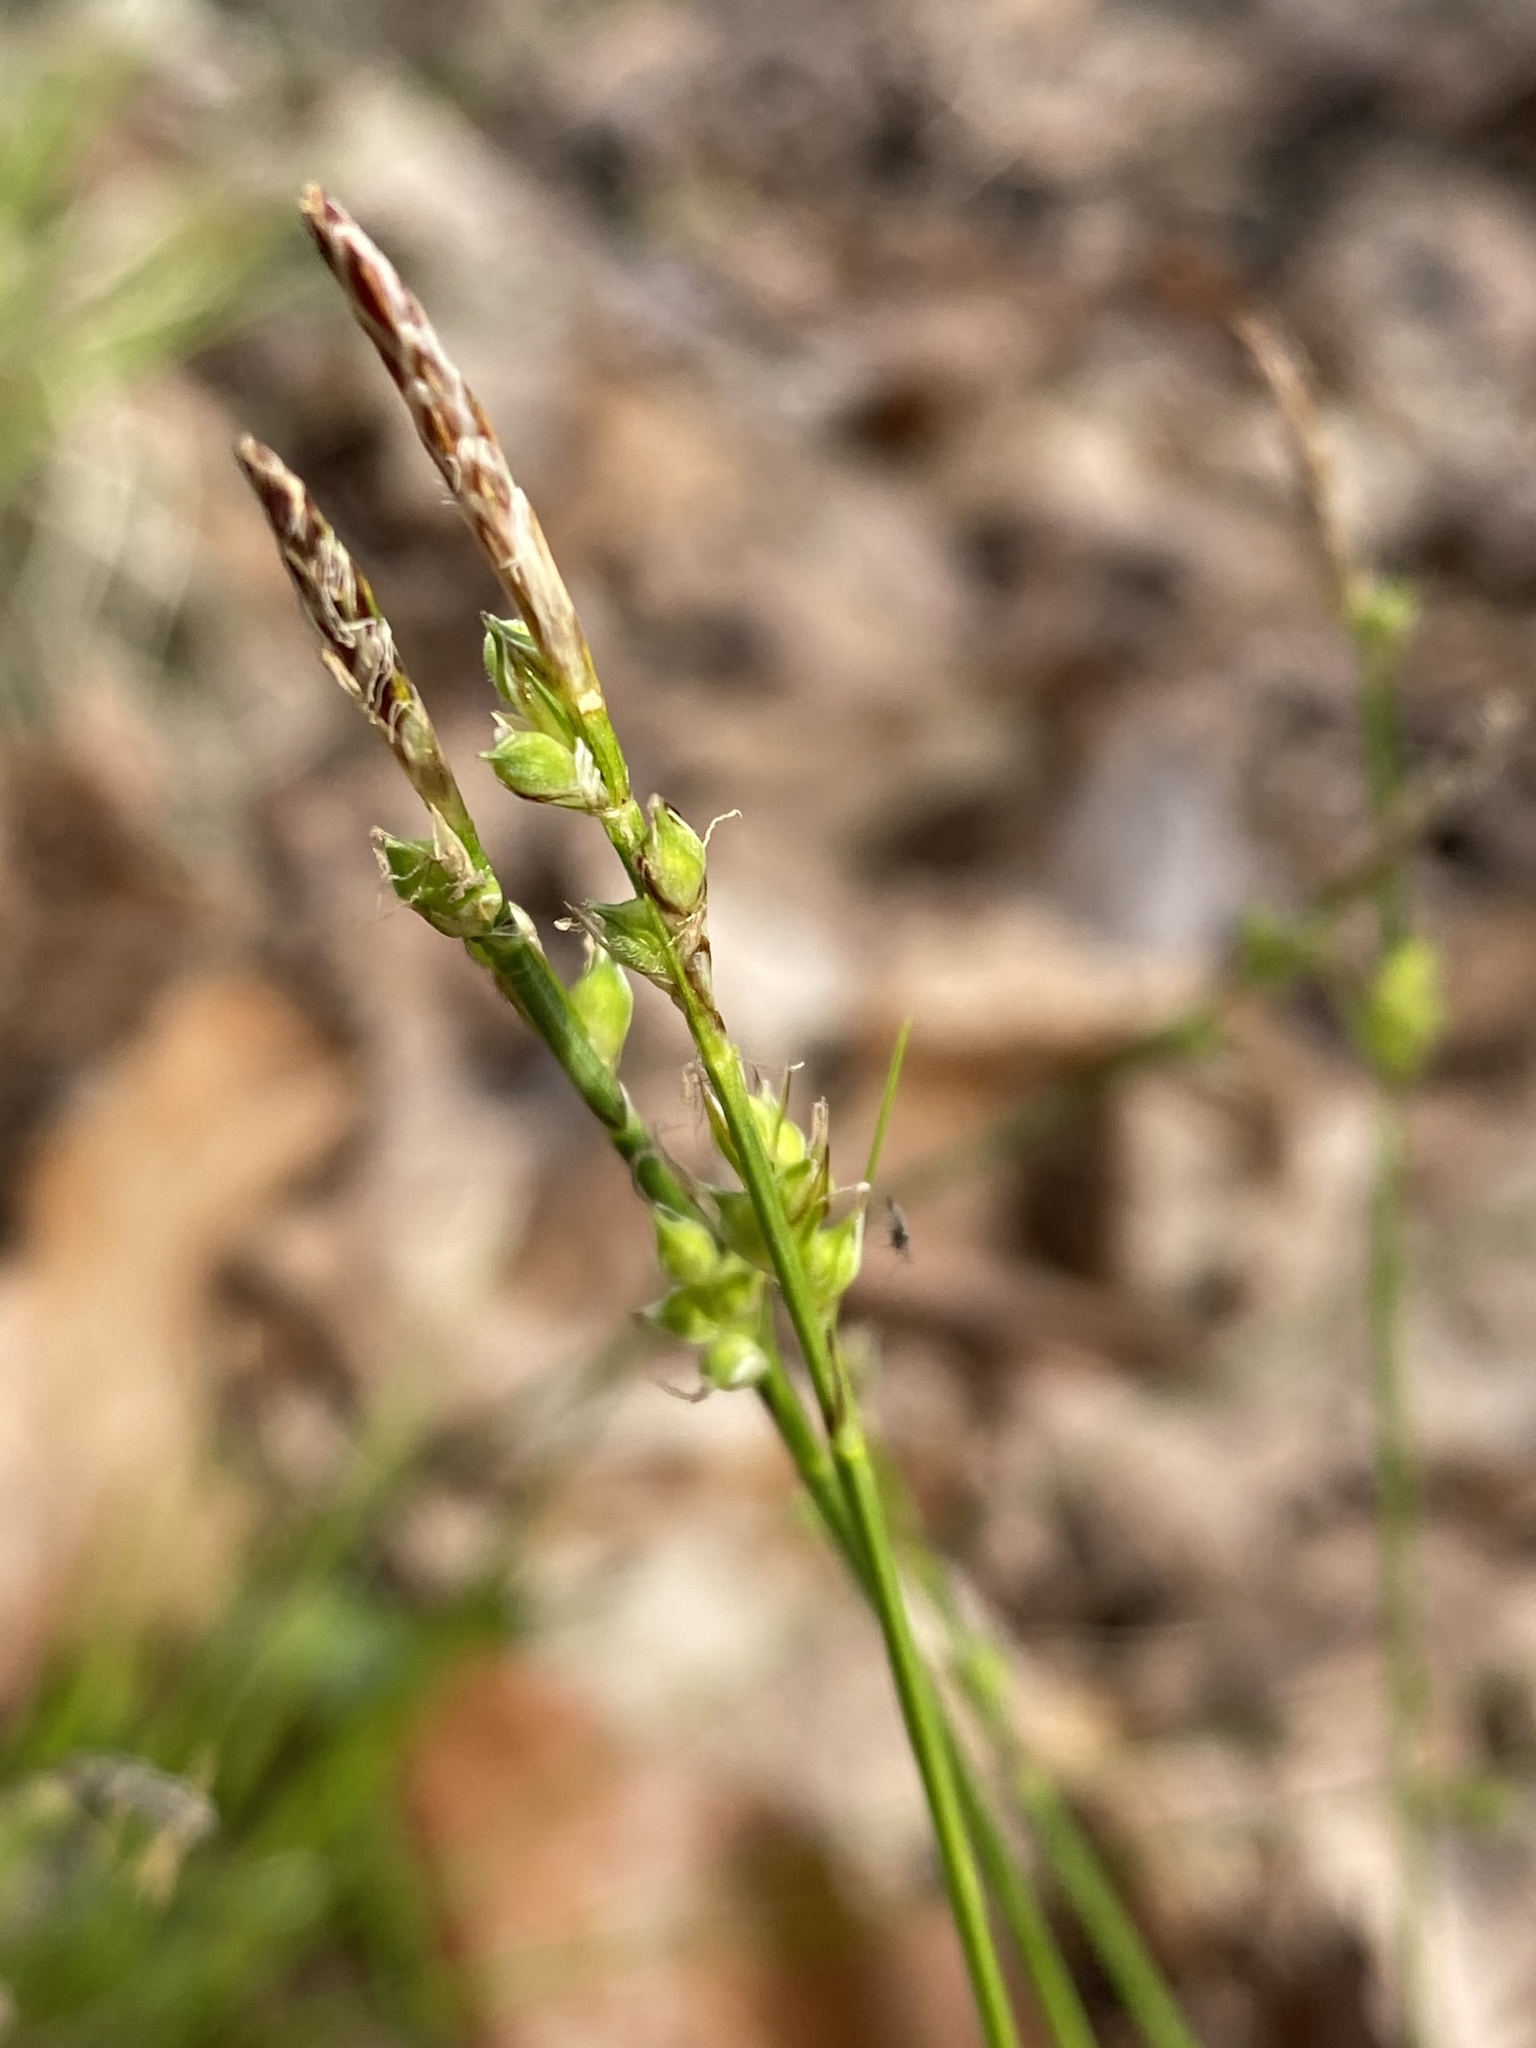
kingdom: Plantae
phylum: Tracheophyta
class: Liliopsida
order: Poales
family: Cyperaceae
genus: Carex
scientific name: Carex communis
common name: Colonial oak sedge
